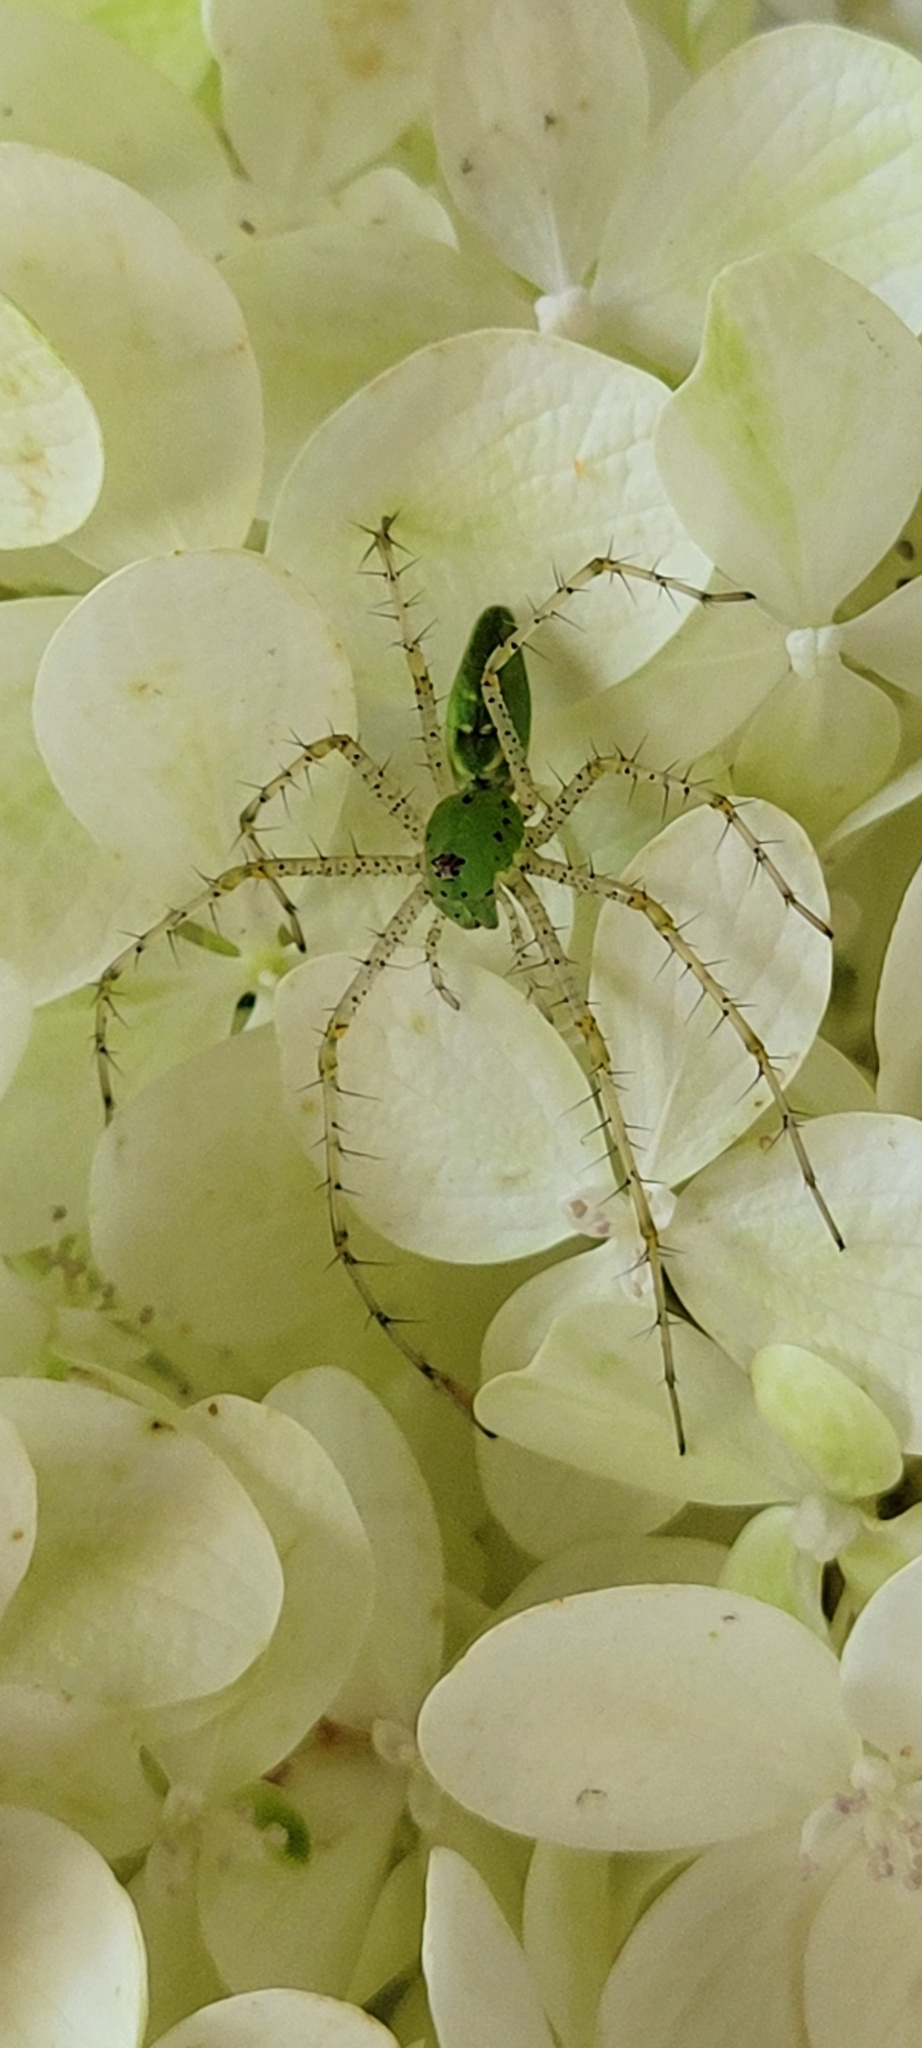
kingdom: Animalia
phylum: Arthropoda
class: Arachnida
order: Araneae
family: Oxyopidae
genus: Peucetia
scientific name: Peucetia viridans
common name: Lynx spiders
